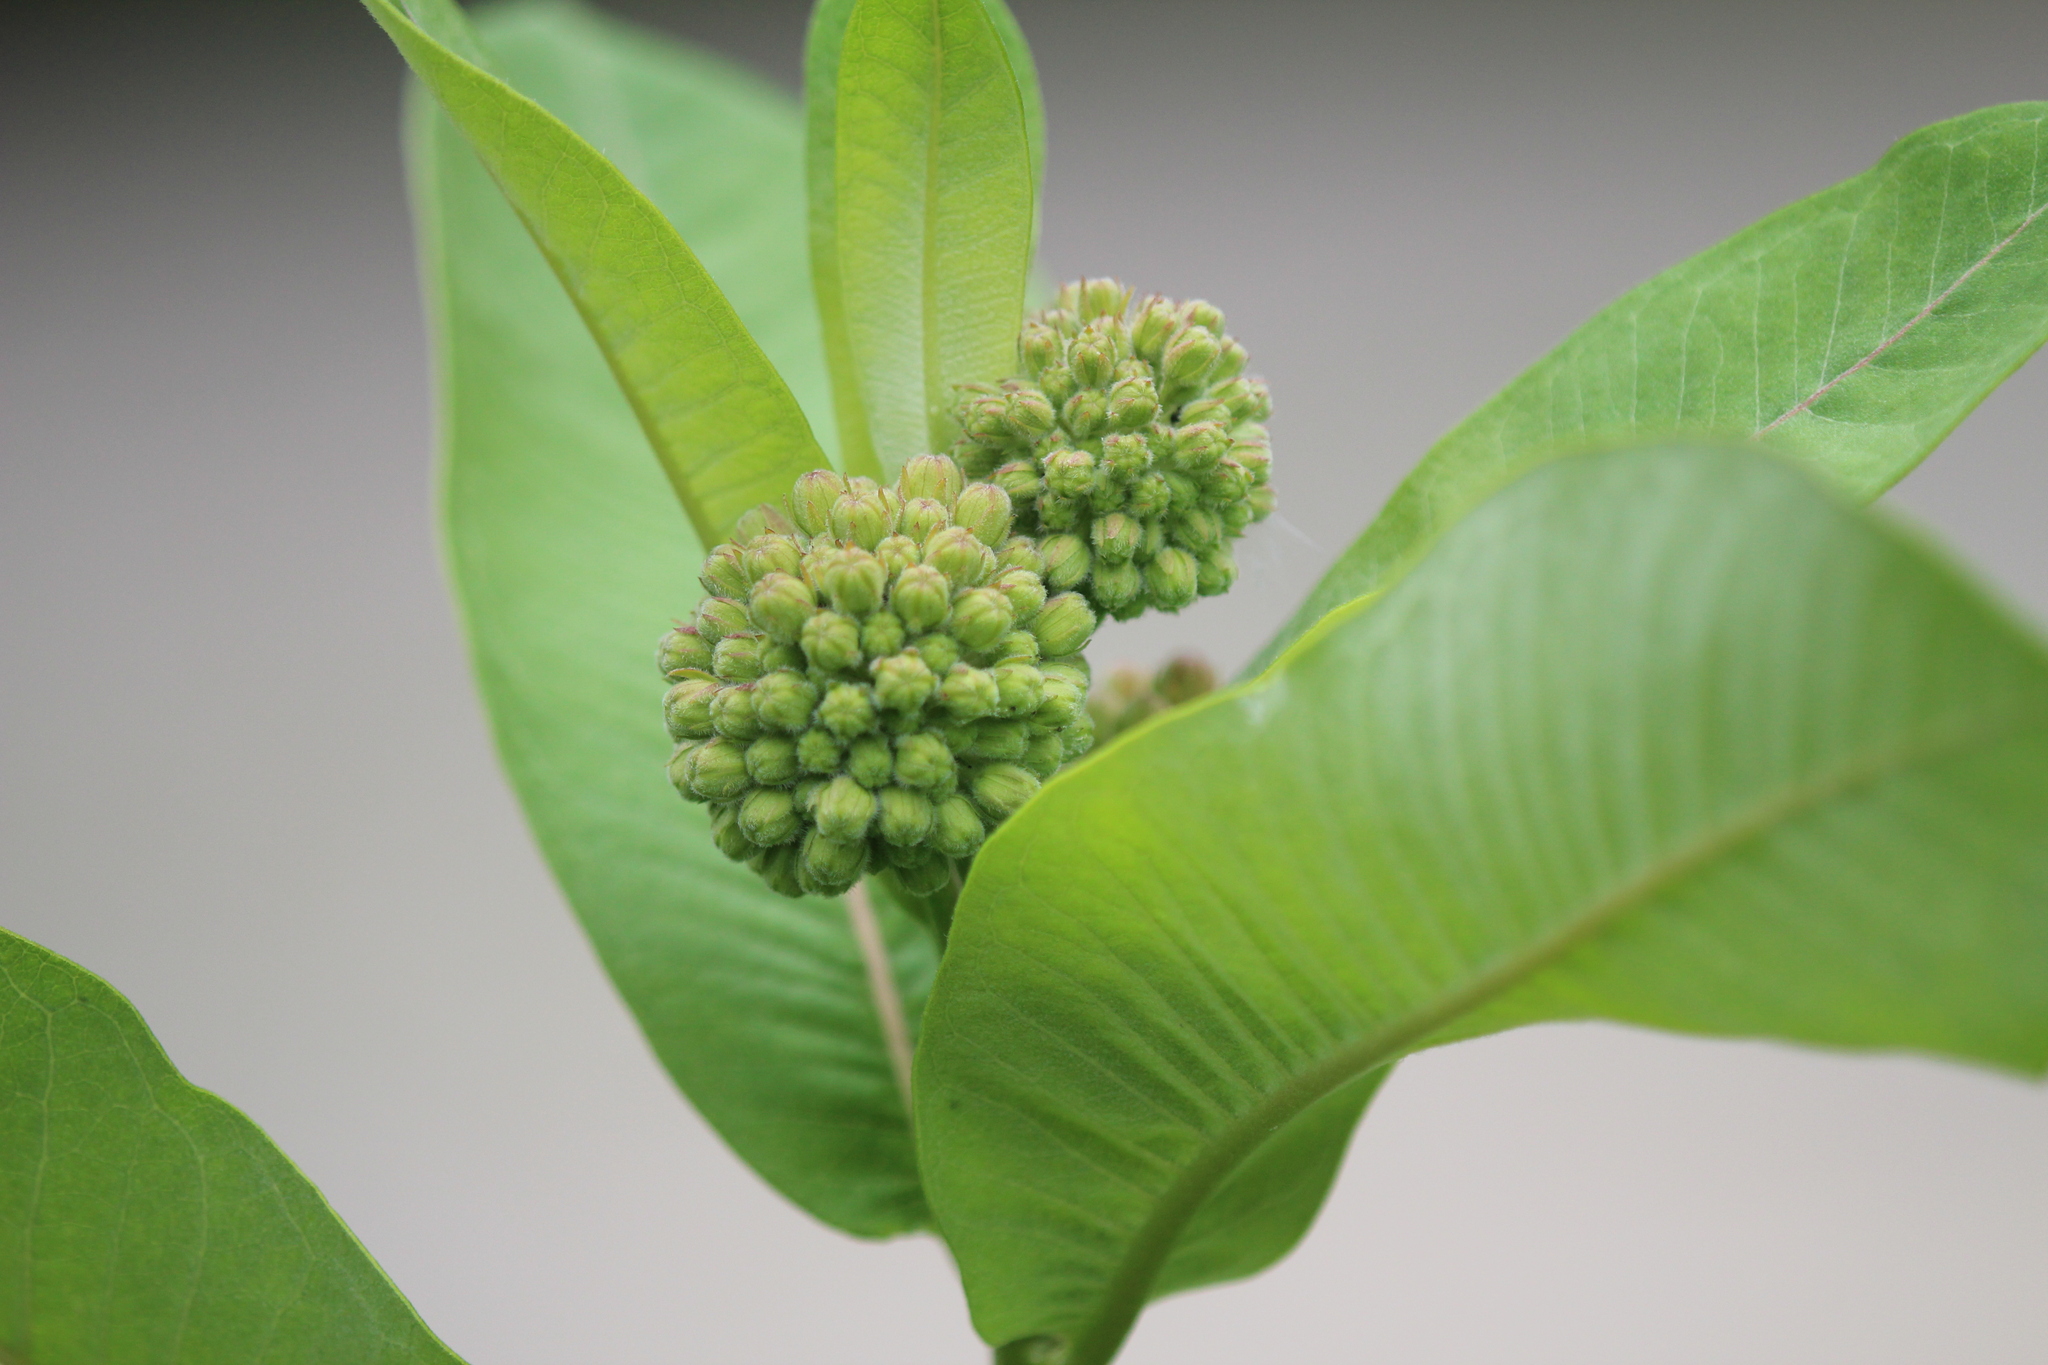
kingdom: Plantae
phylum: Tracheophyta
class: Magnoliopsida
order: Gentianales
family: Apocynaceae
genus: Asclepias
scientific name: Asclepias syriaca
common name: Common milkweed
